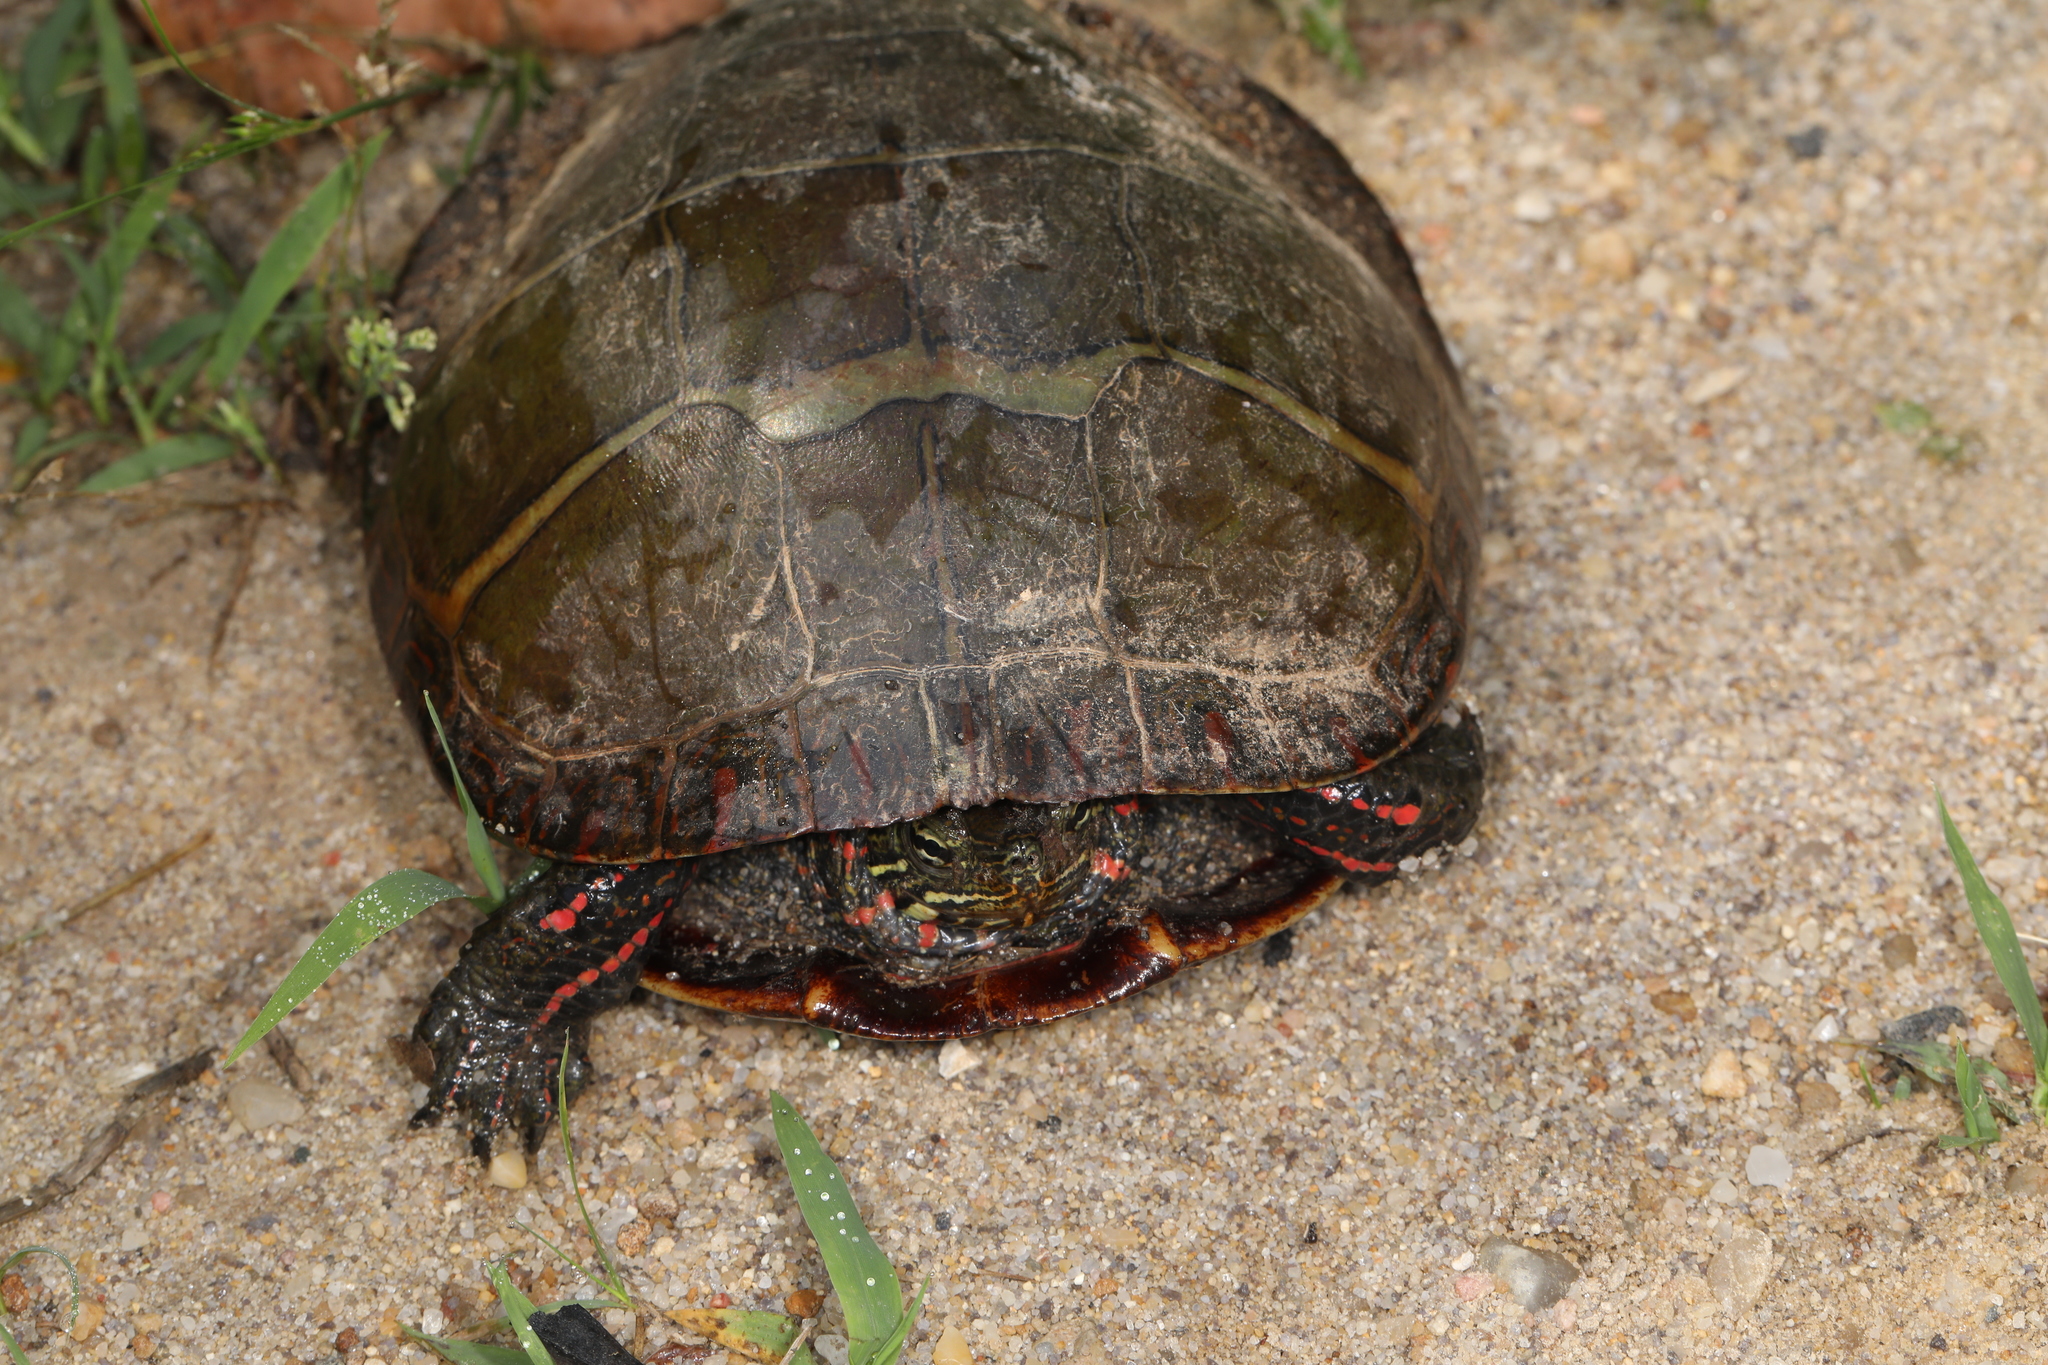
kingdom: Animalia
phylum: Chordata
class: Testudines
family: Emydidae
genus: Chrysemys
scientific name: Chrysemys picta
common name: Painted turtle
